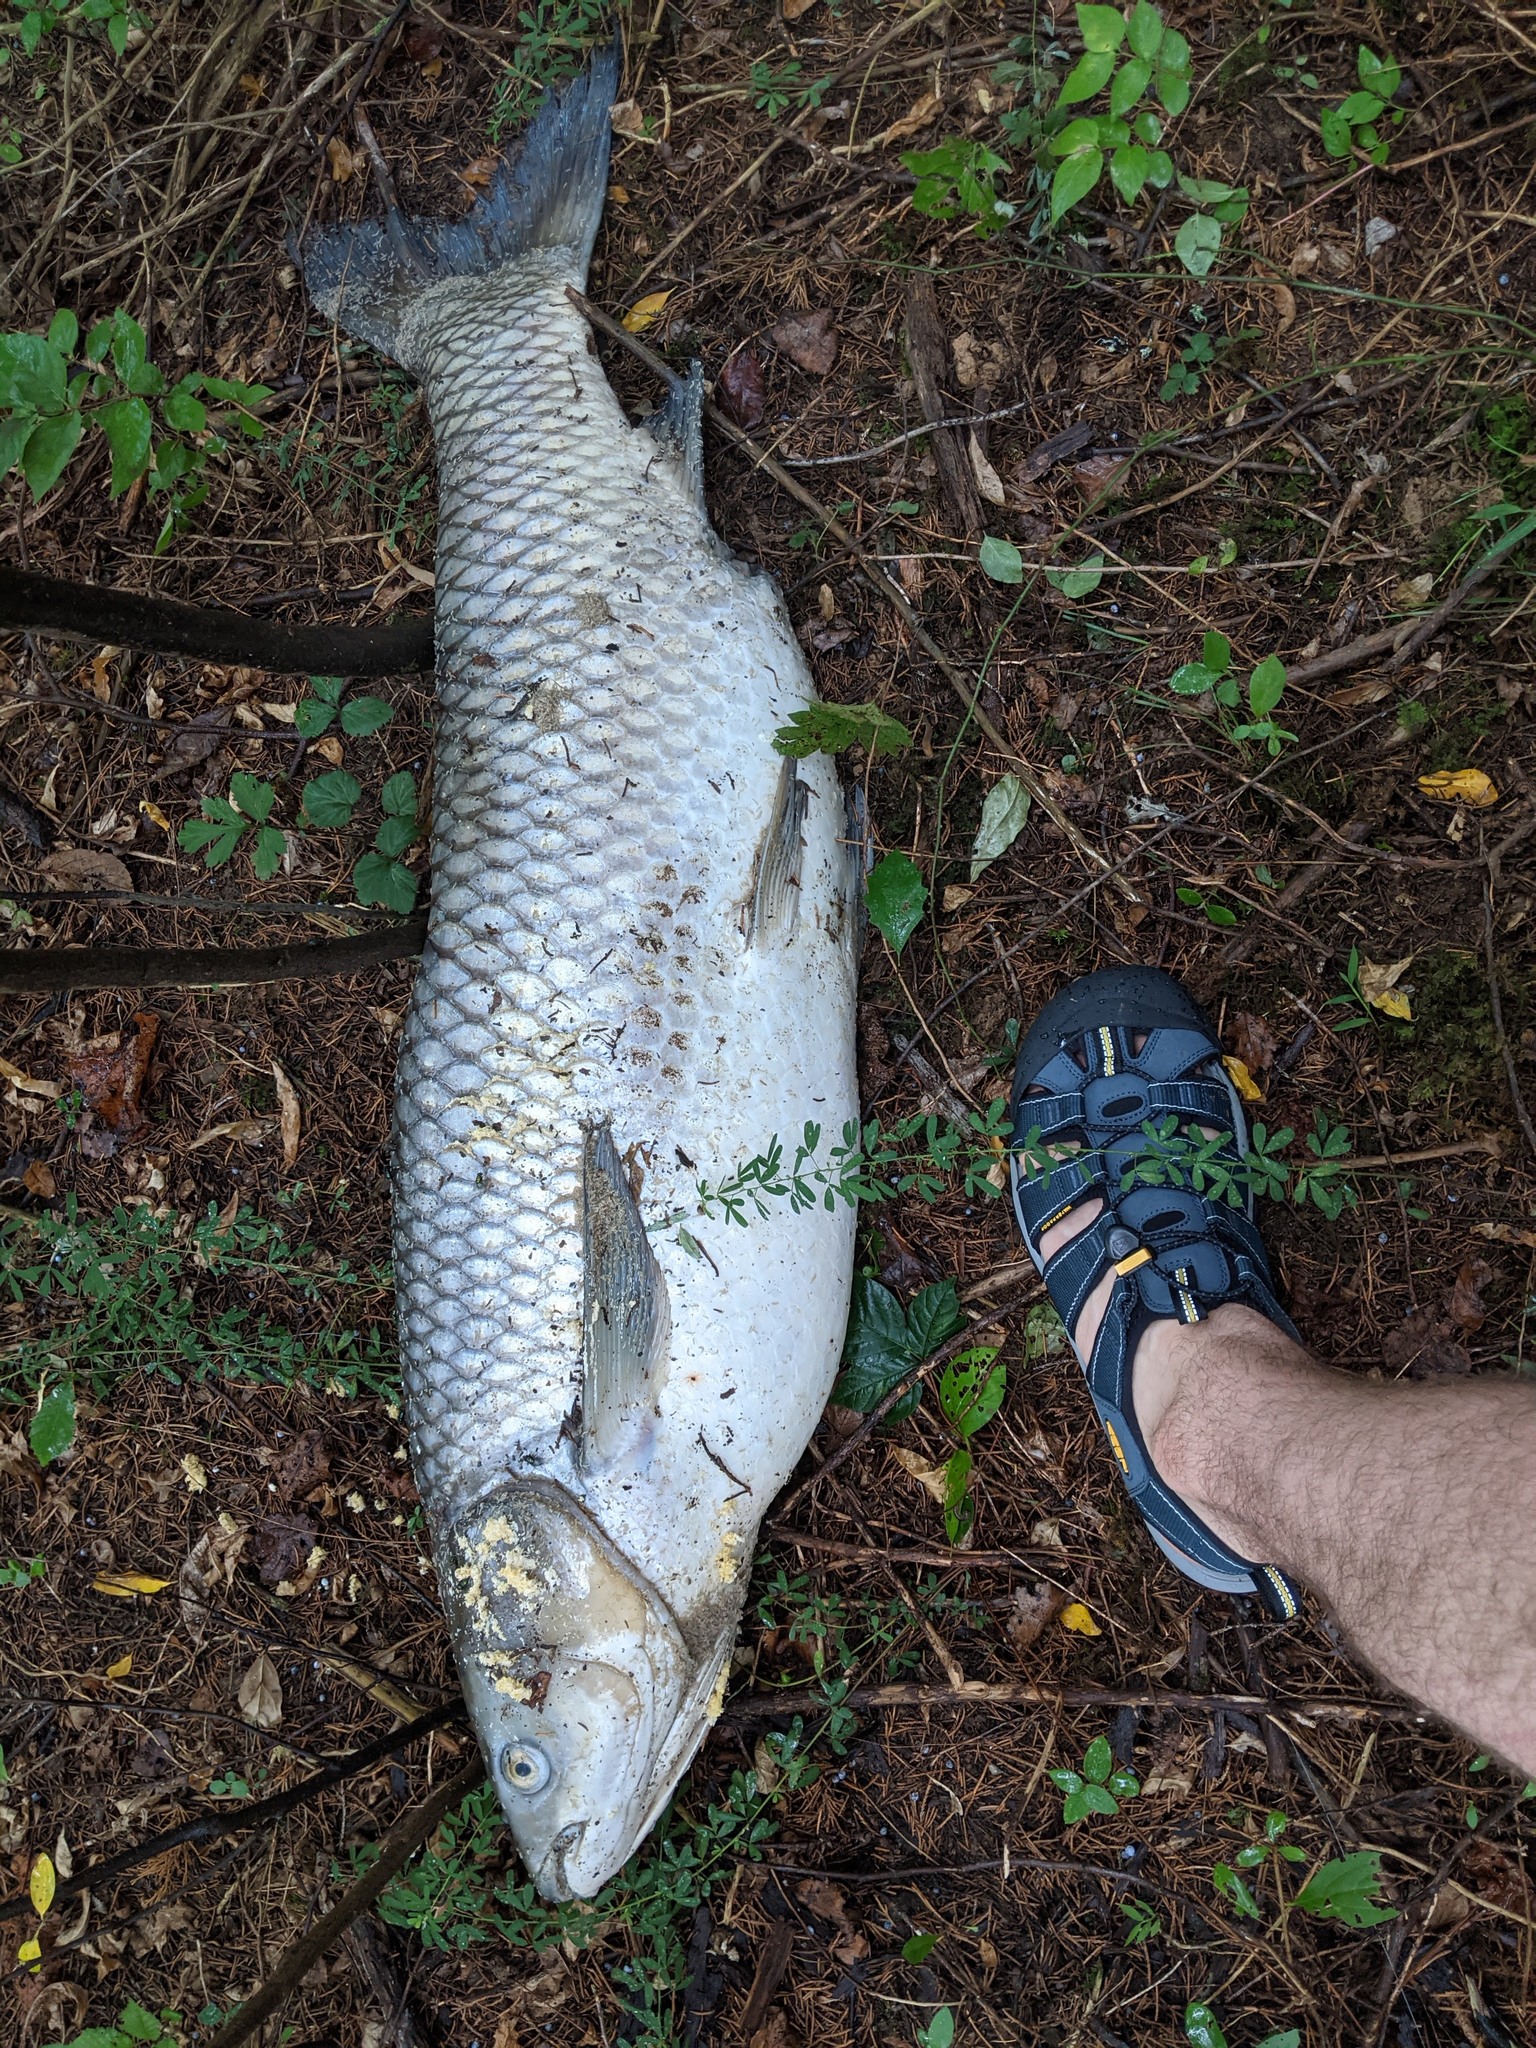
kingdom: Animalia
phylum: Chordata
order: Cypriniformes
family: Cyprinidae
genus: Ctenopharyngodon
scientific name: Ctenopharyngodon idella
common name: Grass carp
